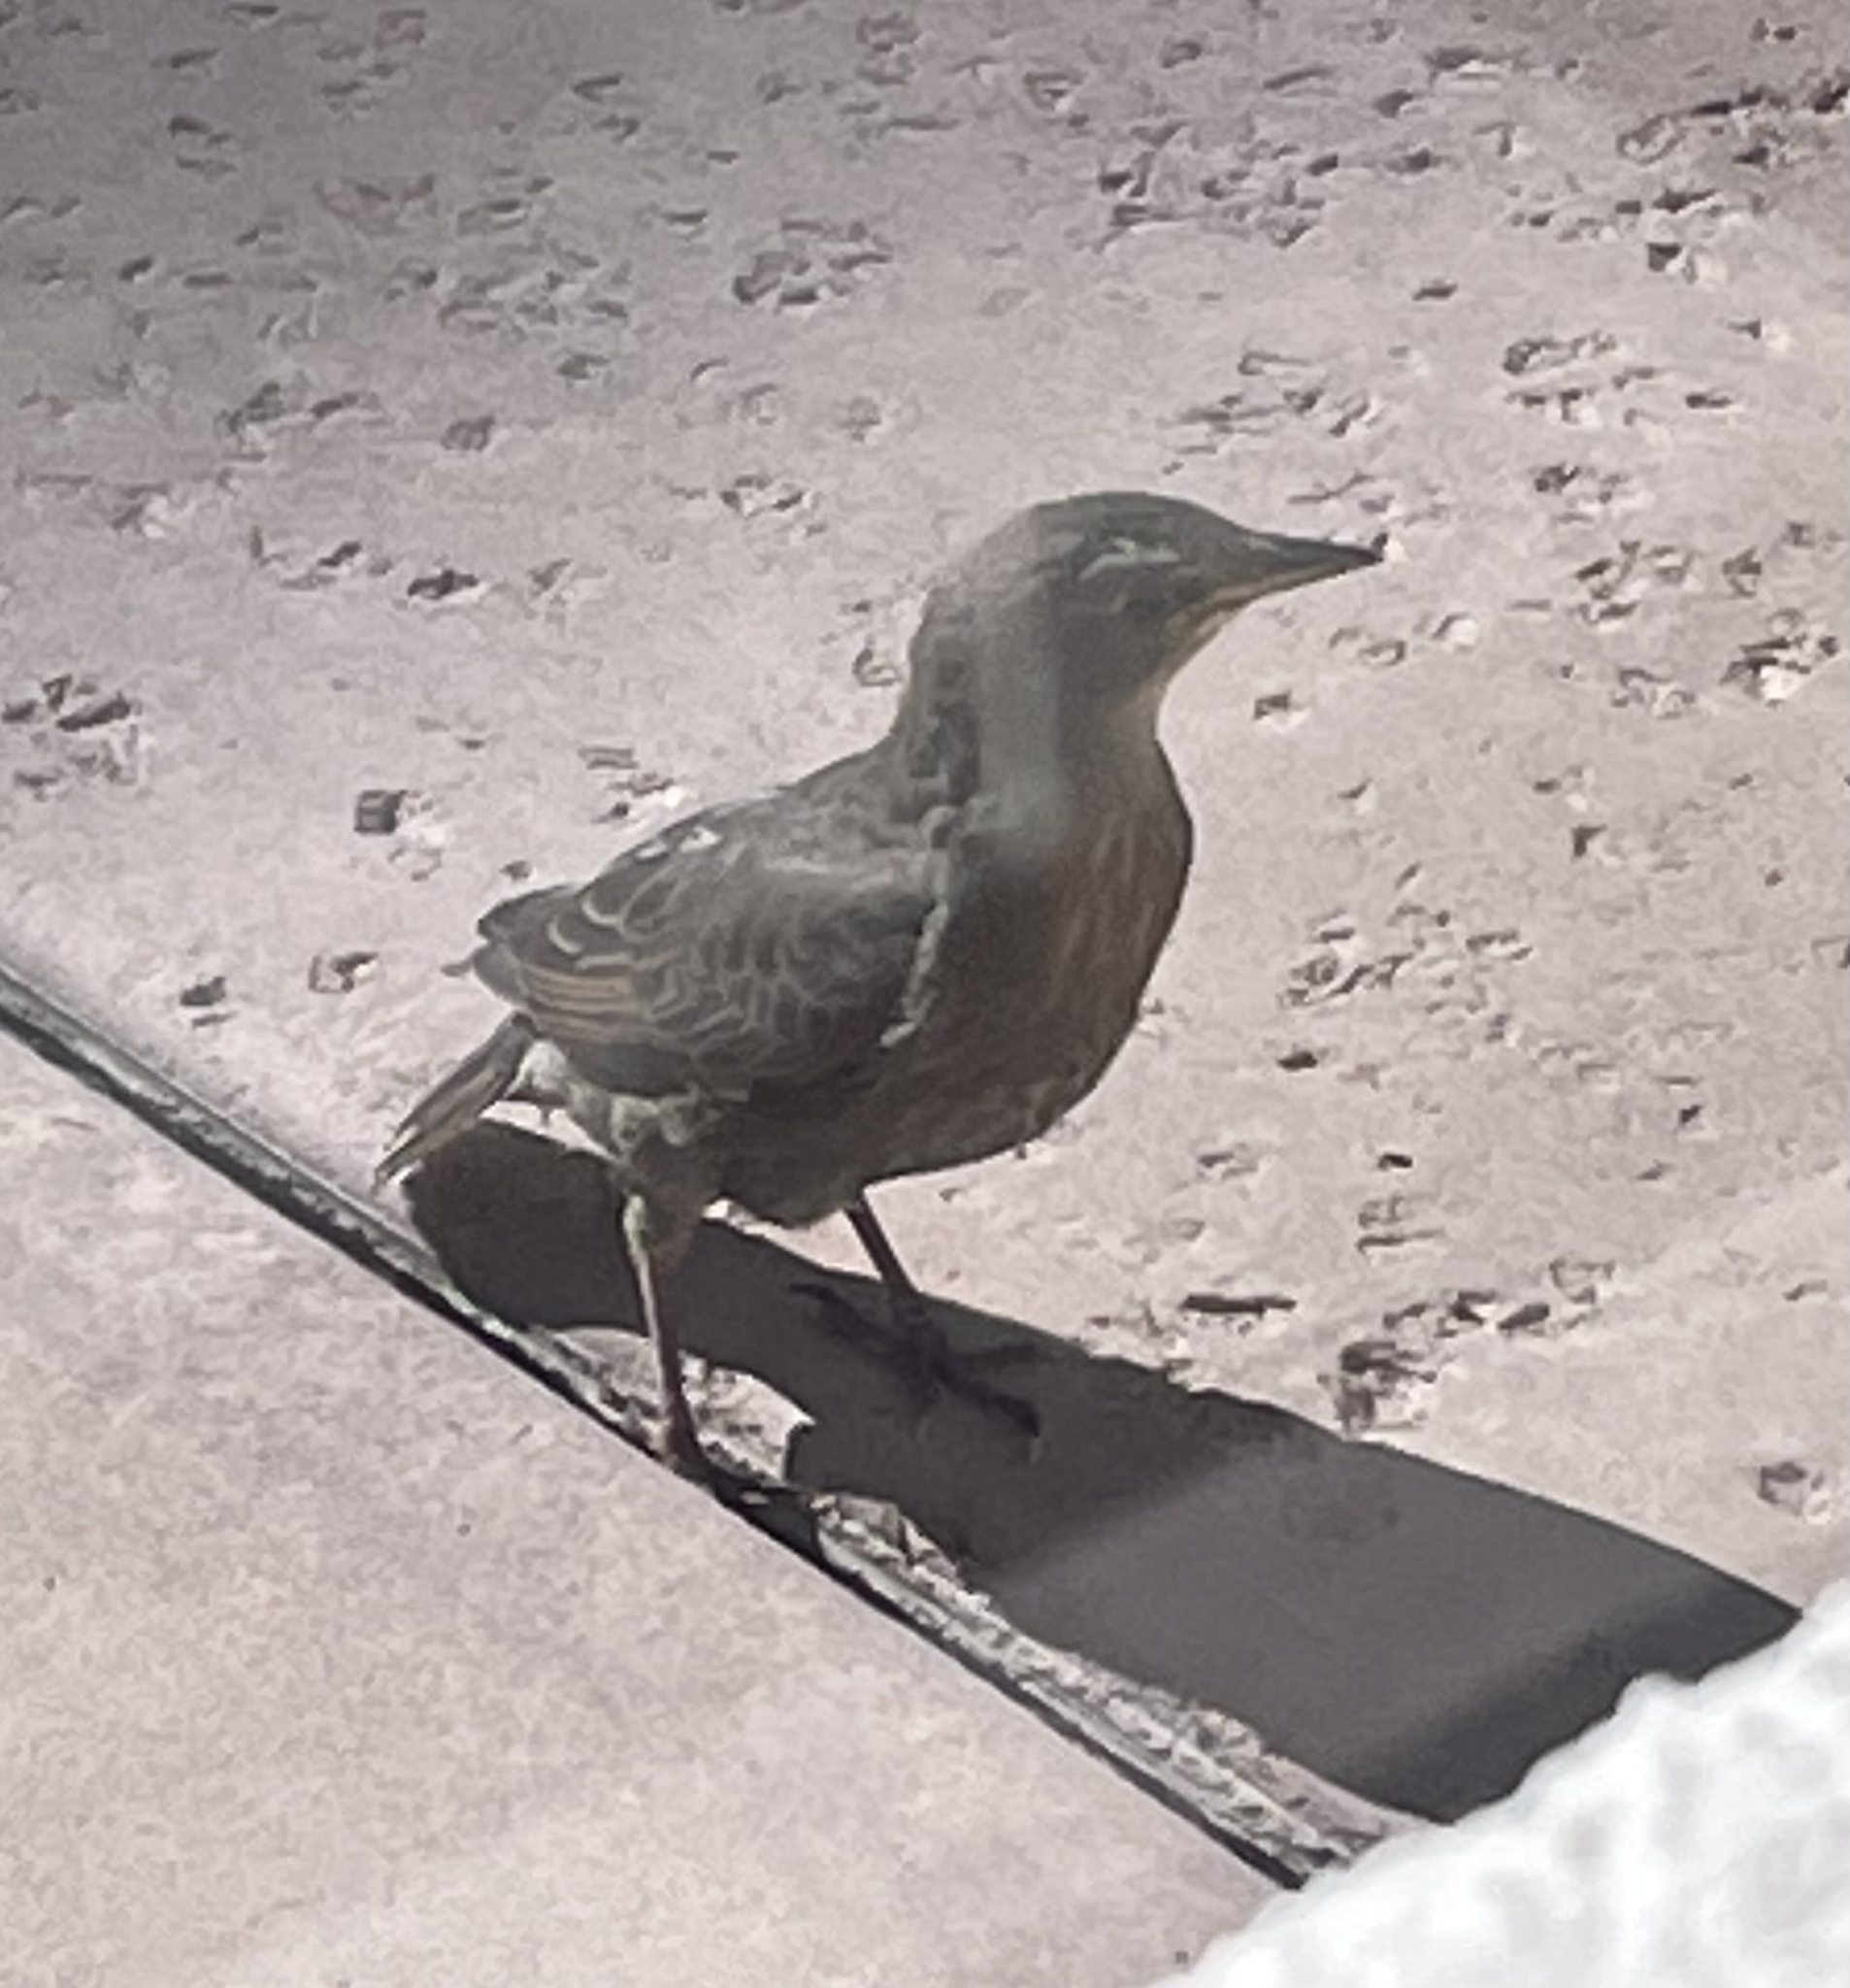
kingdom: Animalia
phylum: Chordata
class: Aves
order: Passeriformes
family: Sturnidae
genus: Sturnus
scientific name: Sturnus vulgaris
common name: Common starling
